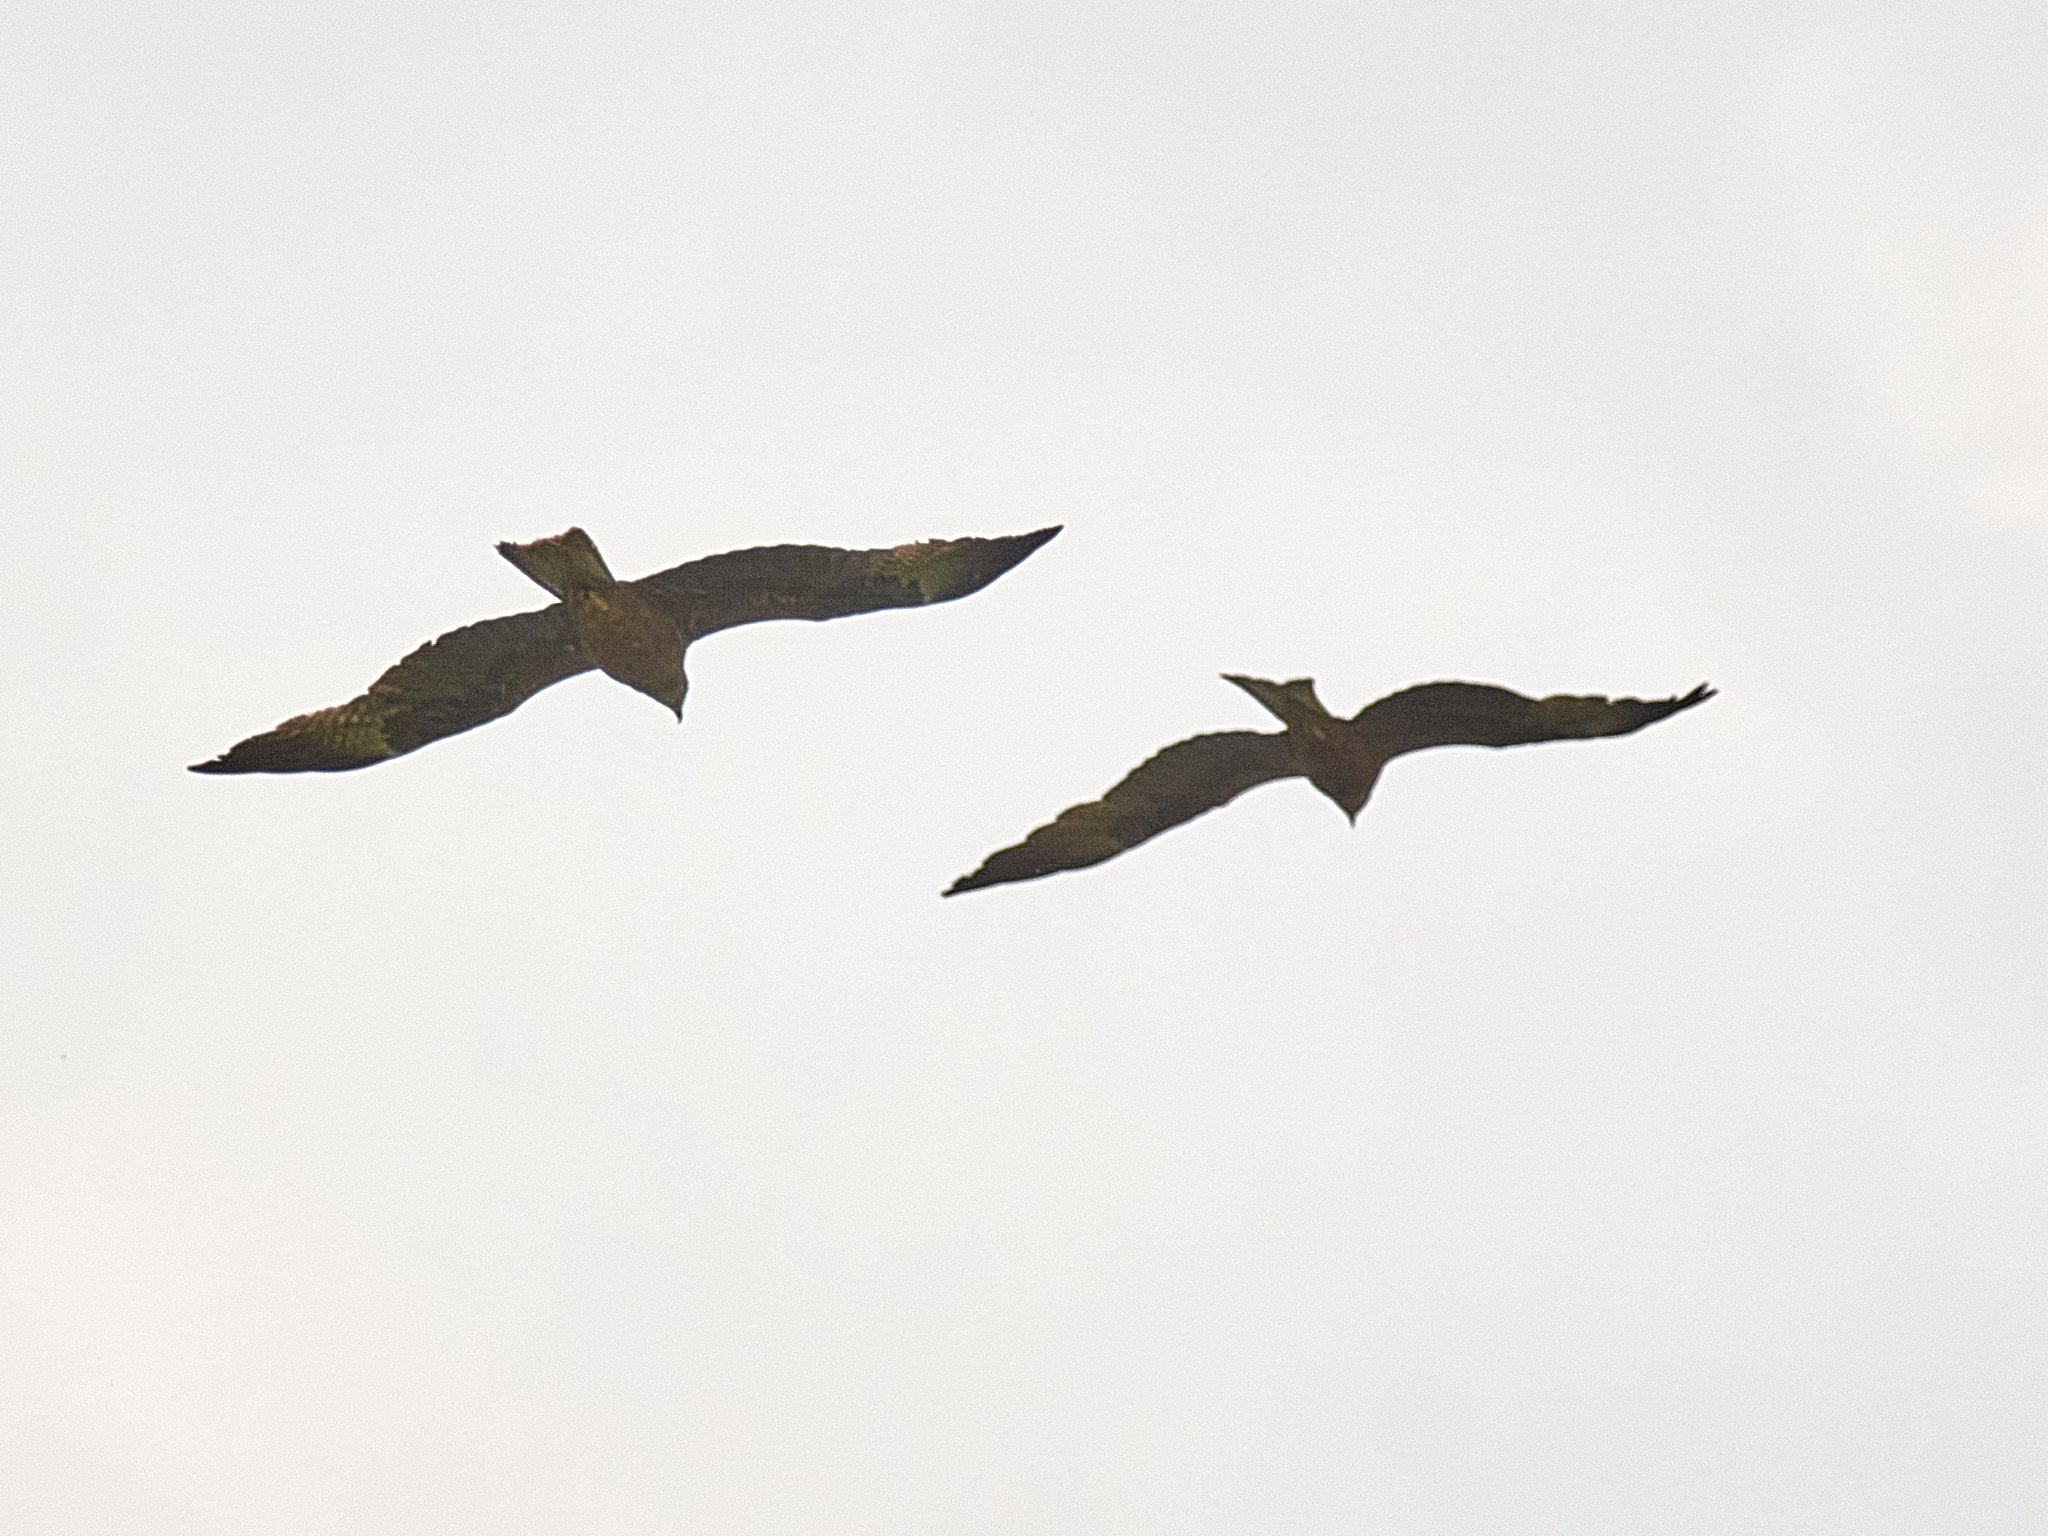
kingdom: Animalia
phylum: Chordata
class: Aves
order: Accipitriformes
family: Accipitridae
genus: Milvus
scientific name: Milvus migrans
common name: Black kite
